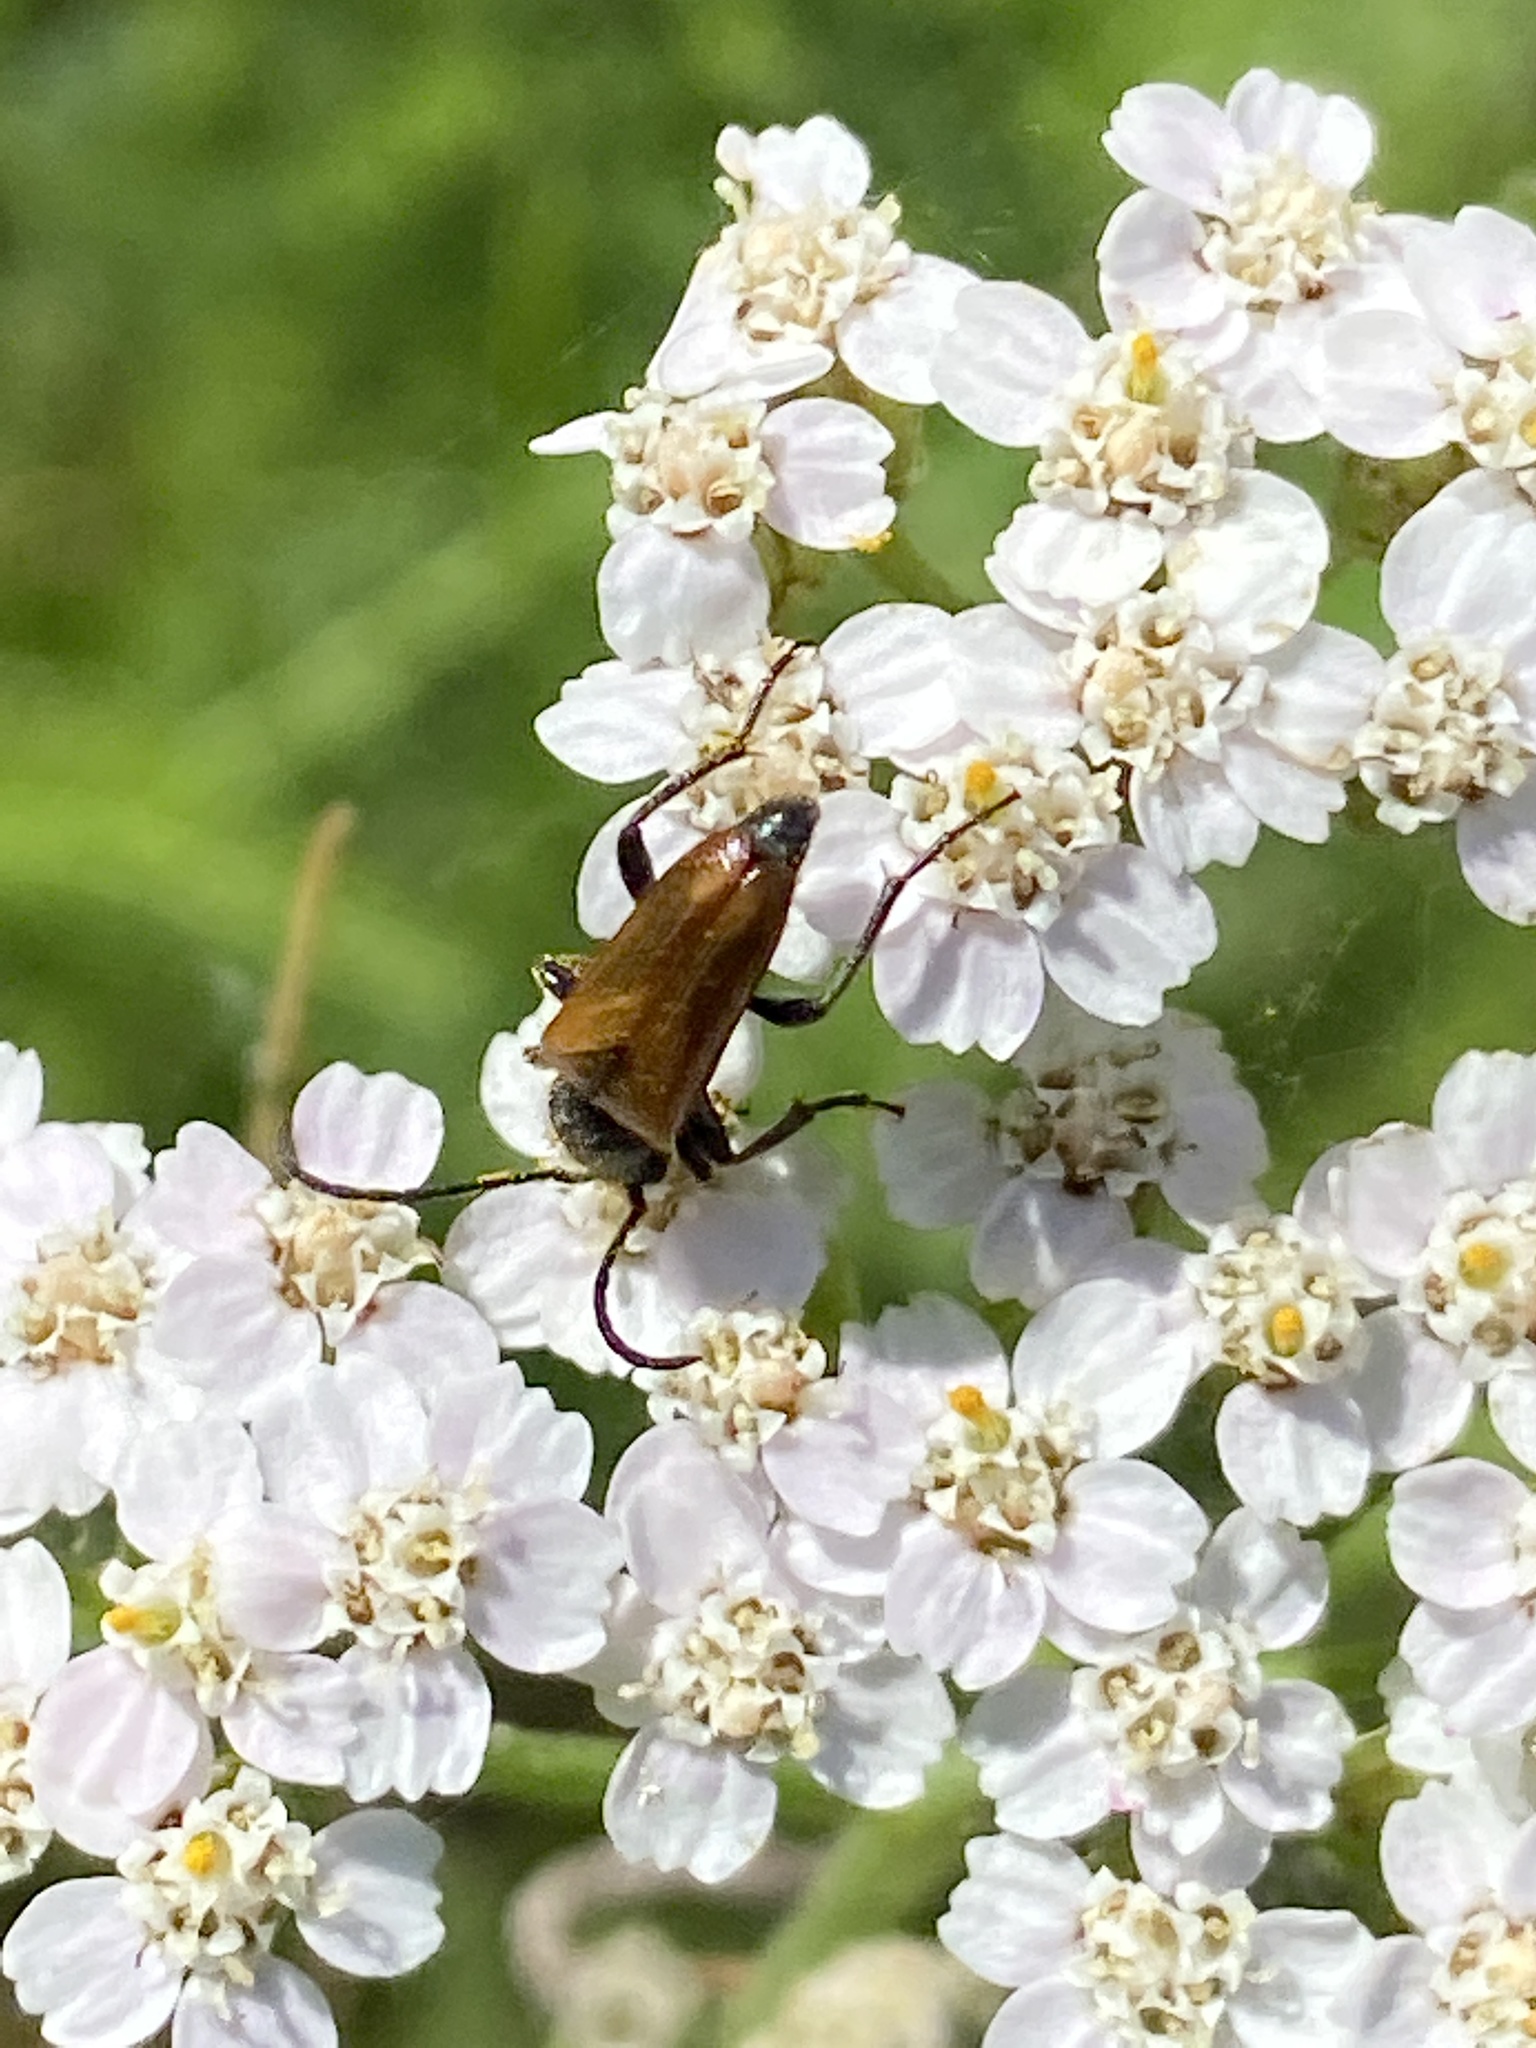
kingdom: Animalia
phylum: Arthropoda
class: Insecta
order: Coleoptera
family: Cerambycidae
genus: Pseudovadonia
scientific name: Pseudovadonia livida
